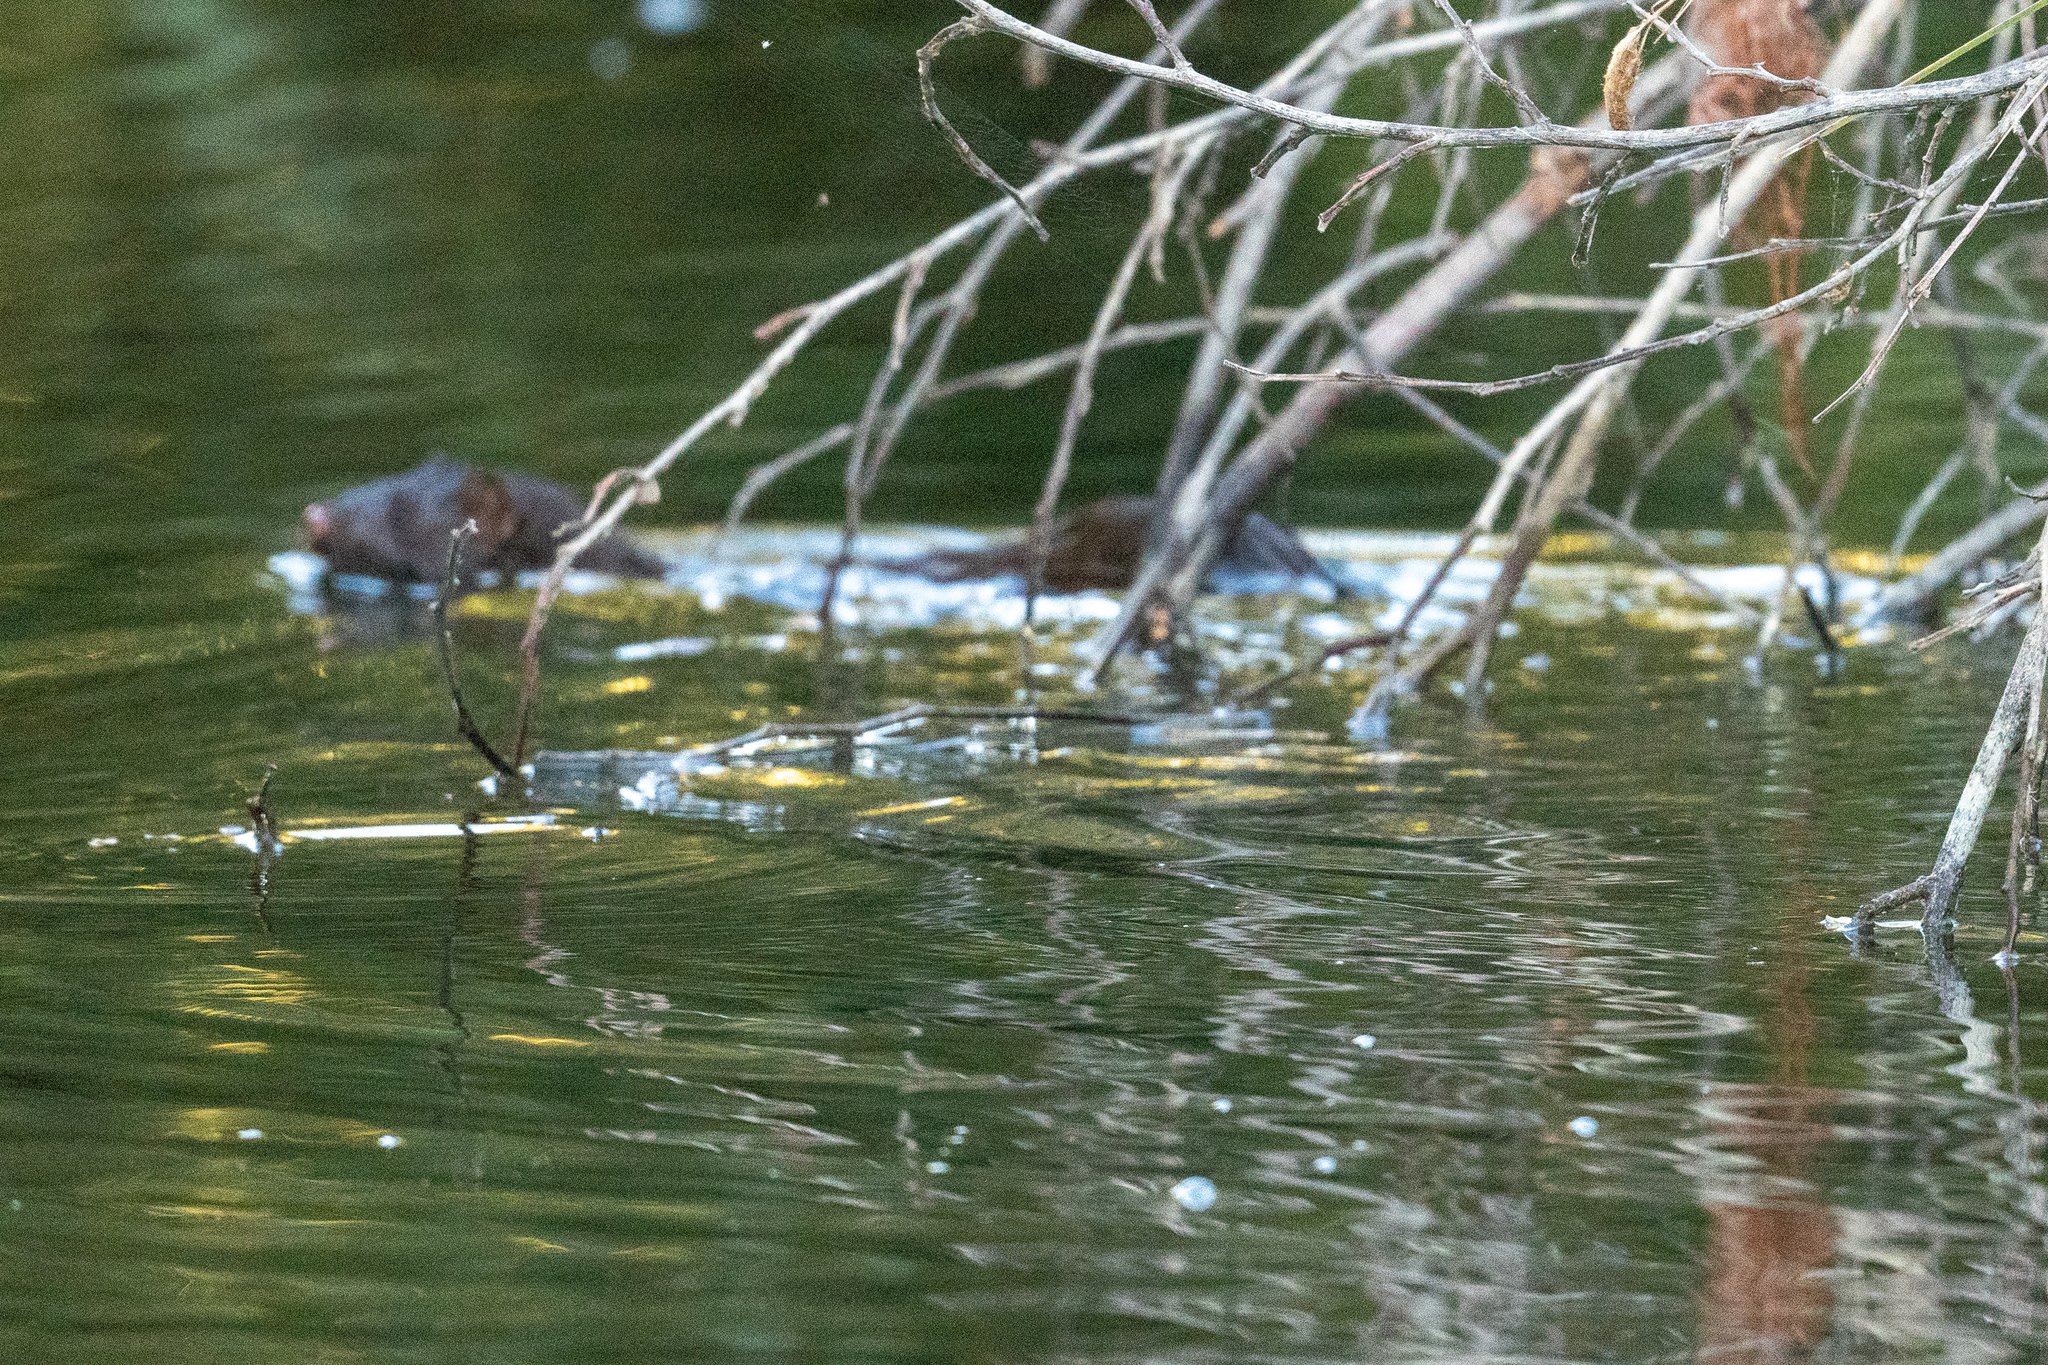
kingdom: Animalia
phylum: Chordata
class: Mammalia
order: Carnivora
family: Mustelidae
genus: Mustela
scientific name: Mustela
